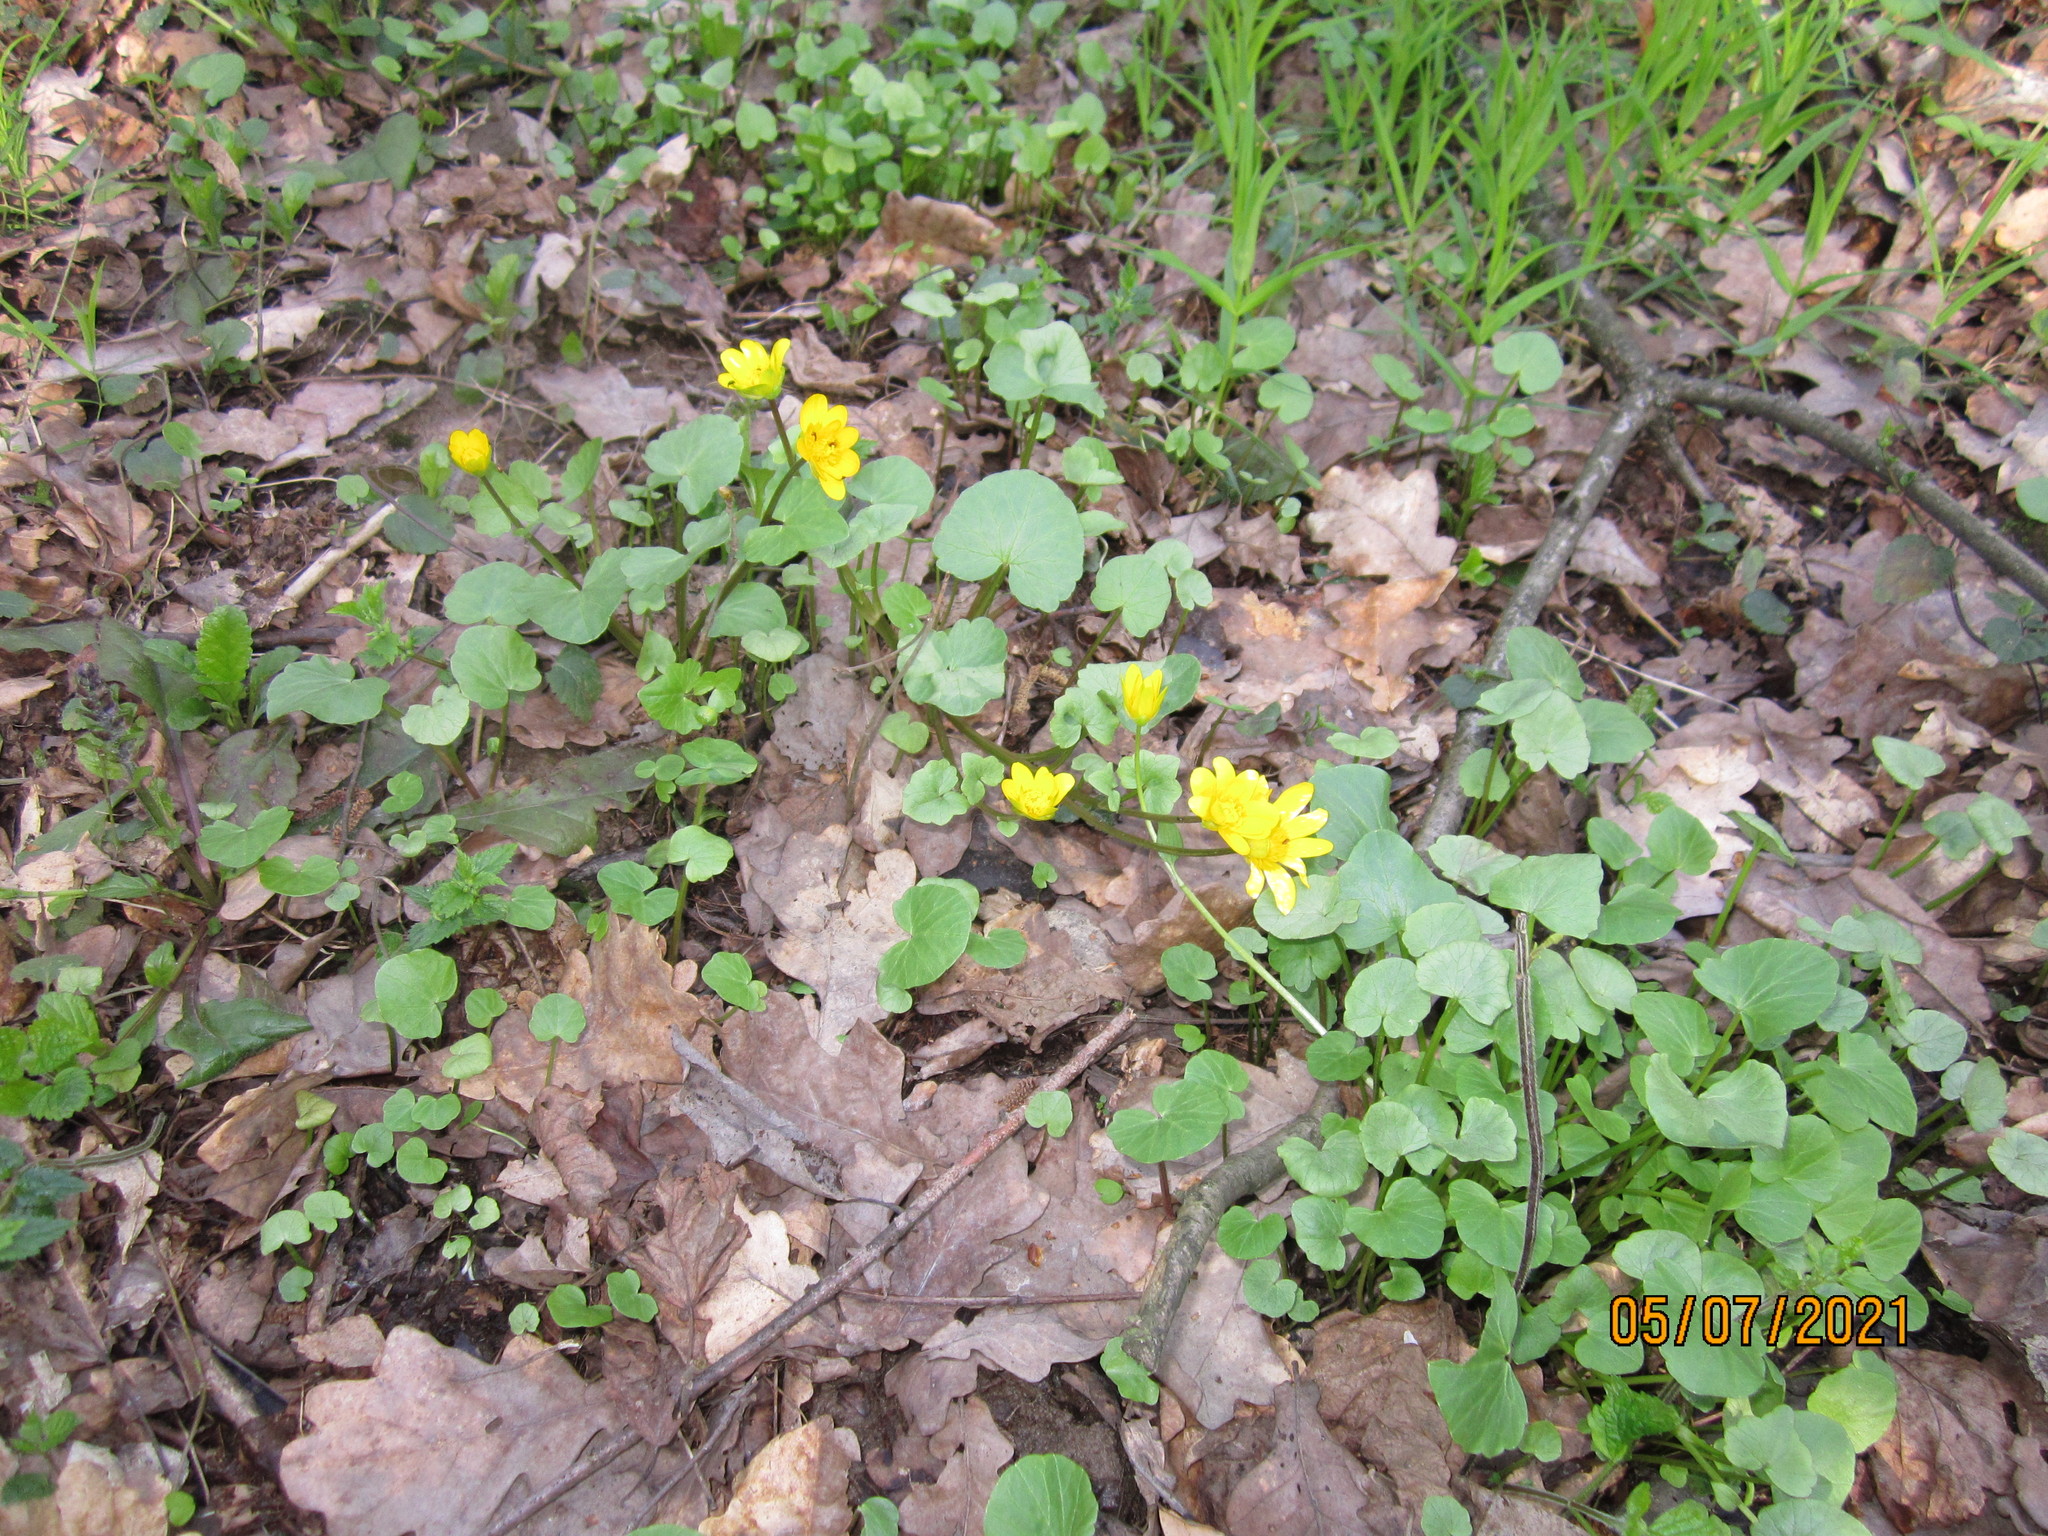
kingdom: Plantae
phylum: Tracheophyta
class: Magnoliopsida
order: Ranunculales
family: Ranunculaceae
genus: Ficaria
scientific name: Ficaria verna
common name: Lesser celandine
